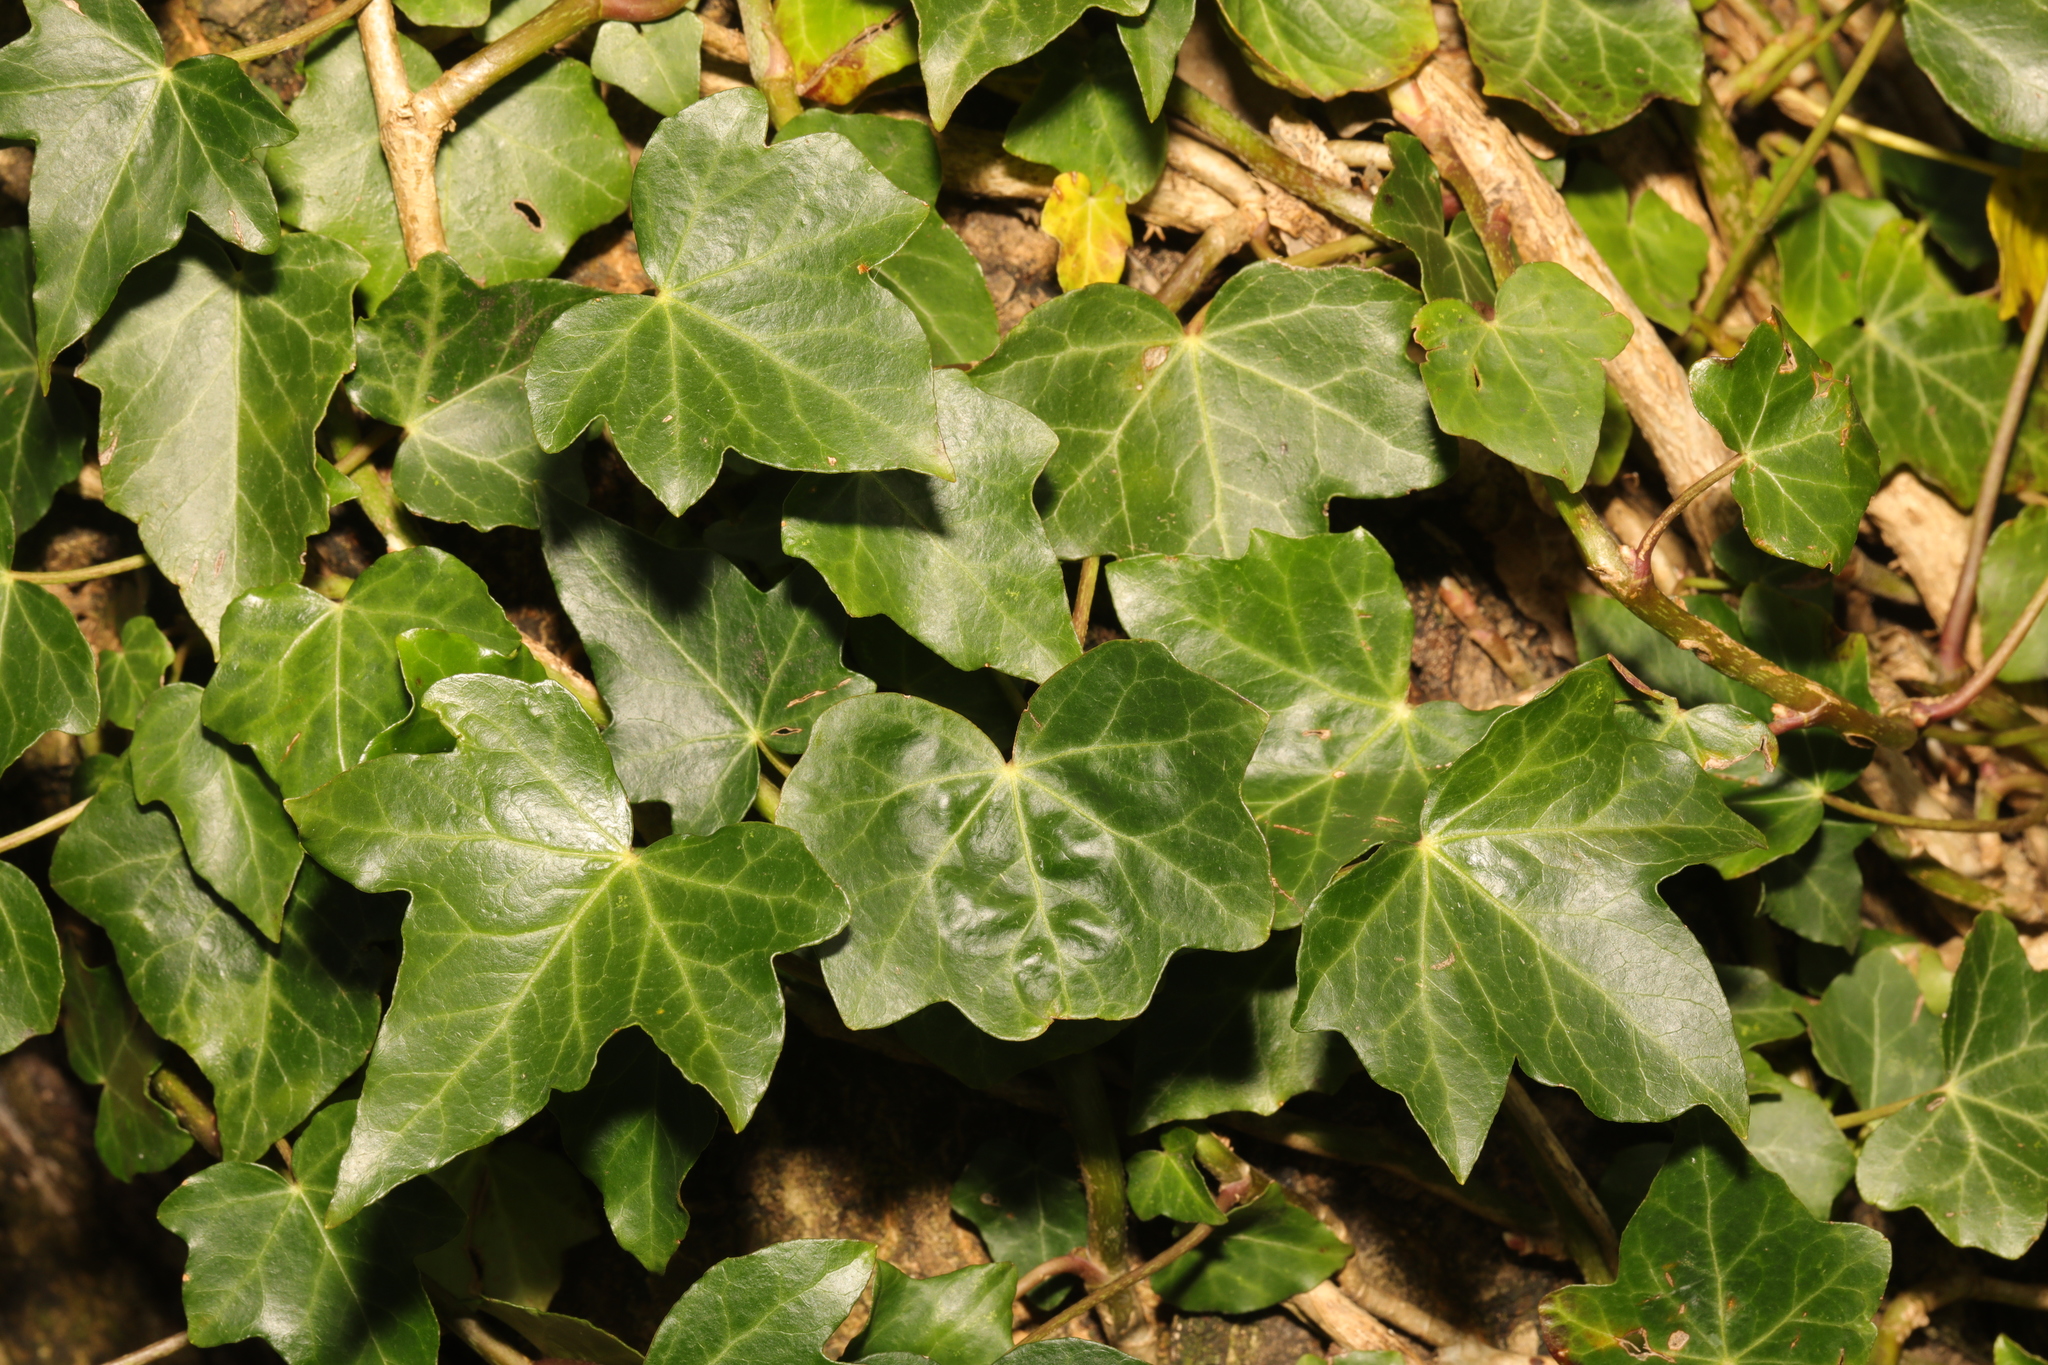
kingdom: Plantae
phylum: Tracheophyta
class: Magnoliopsida
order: Apiales
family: Araliaceae
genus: Hedera
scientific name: Hedera helix
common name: Ivy
